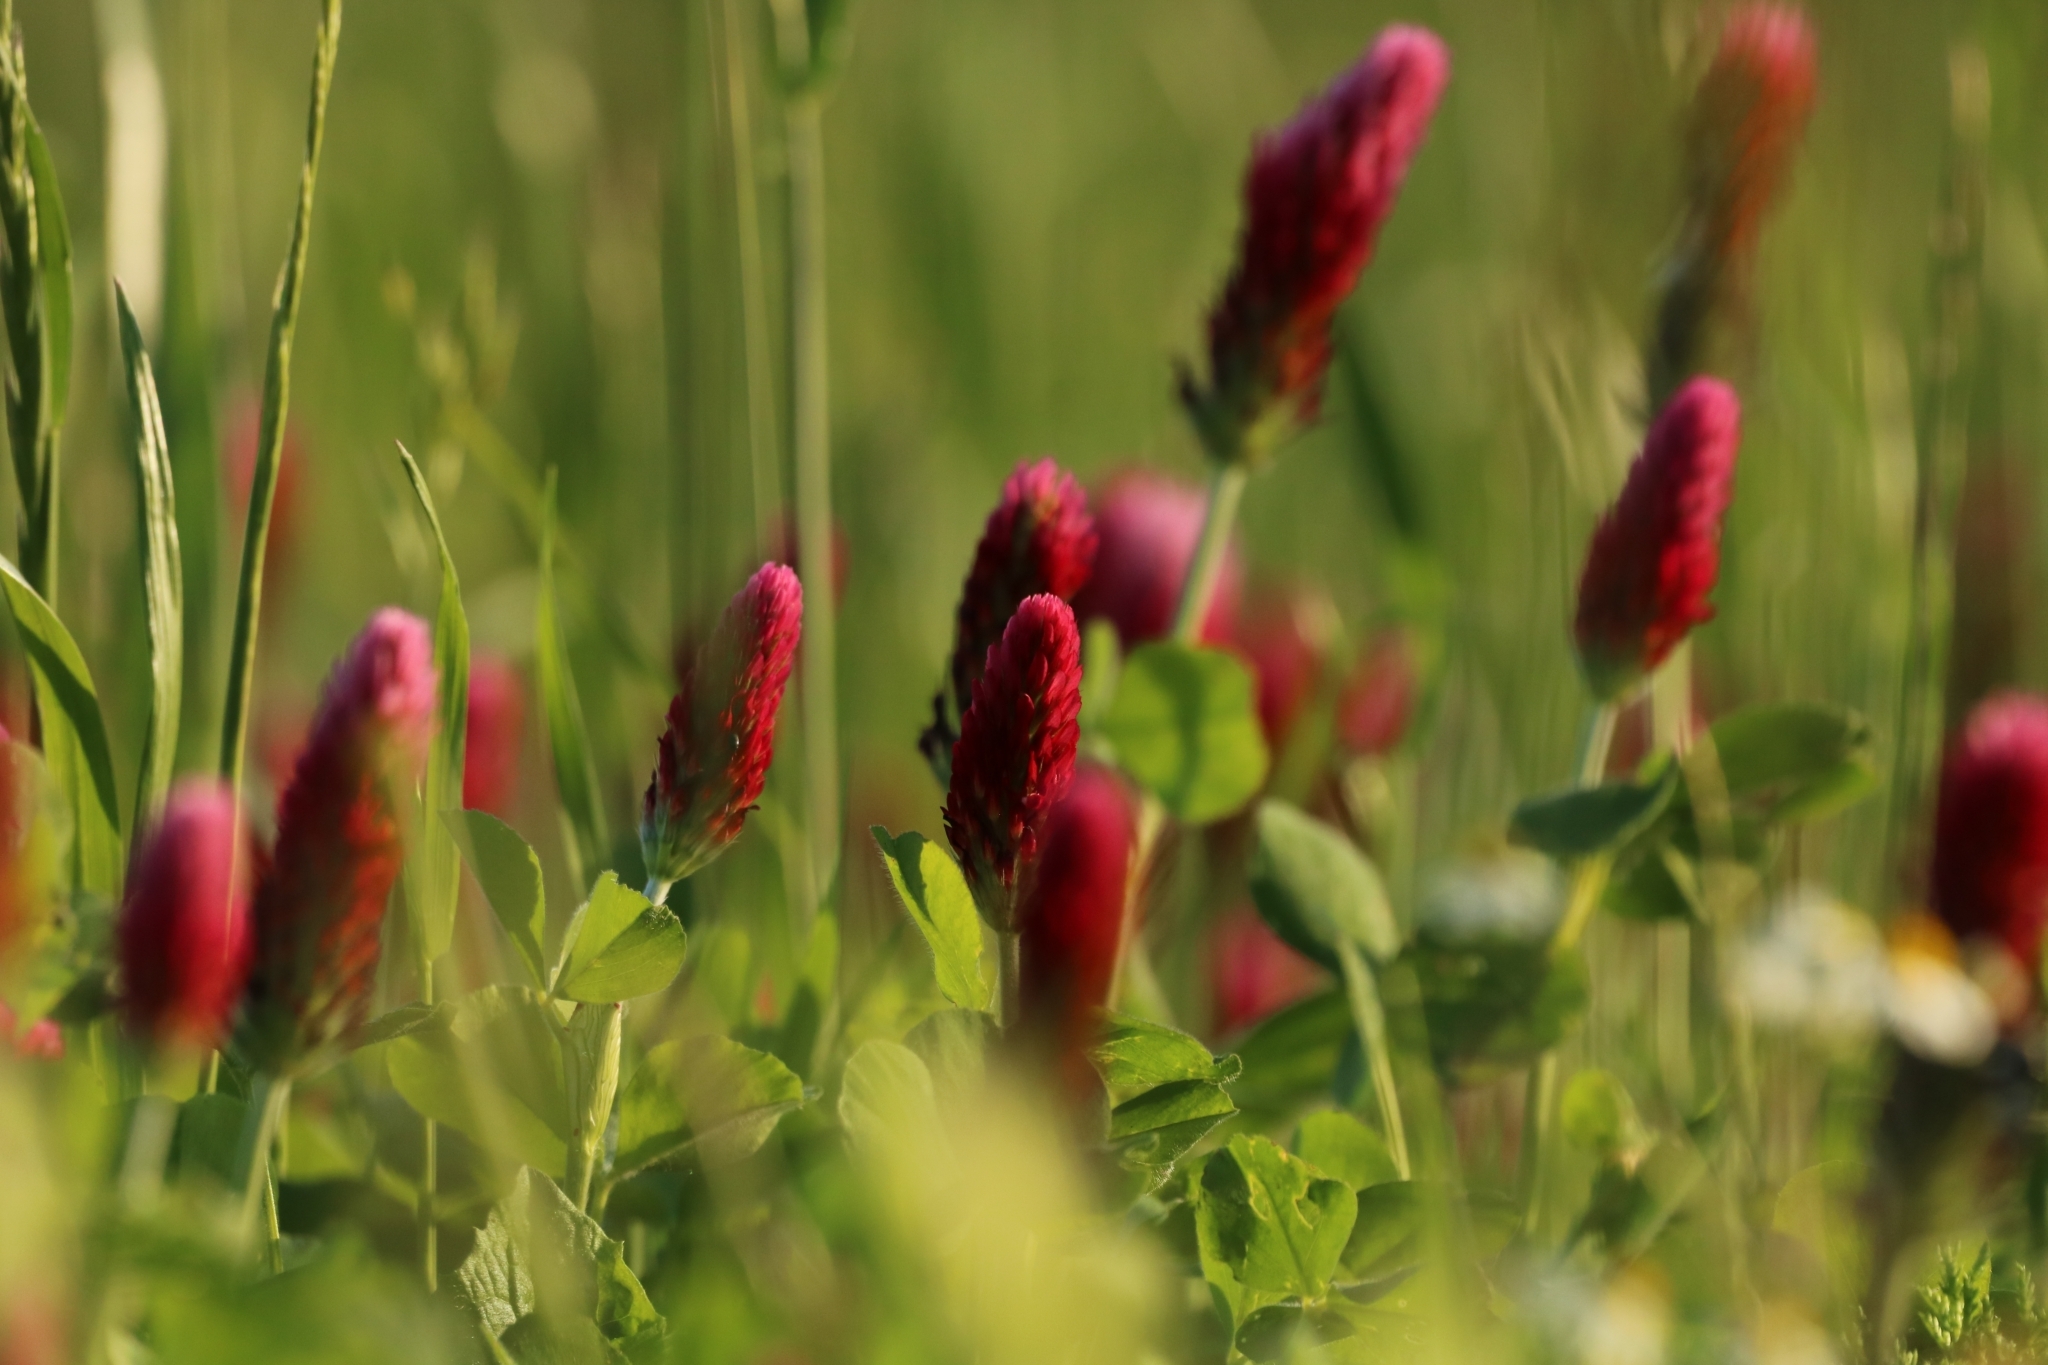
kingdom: Plantae
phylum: Tracheophyta
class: Magnoliopsida
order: Fabales
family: Fabaceae
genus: Trifolium
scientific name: Trifolium incarnatum
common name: Crimson clover
